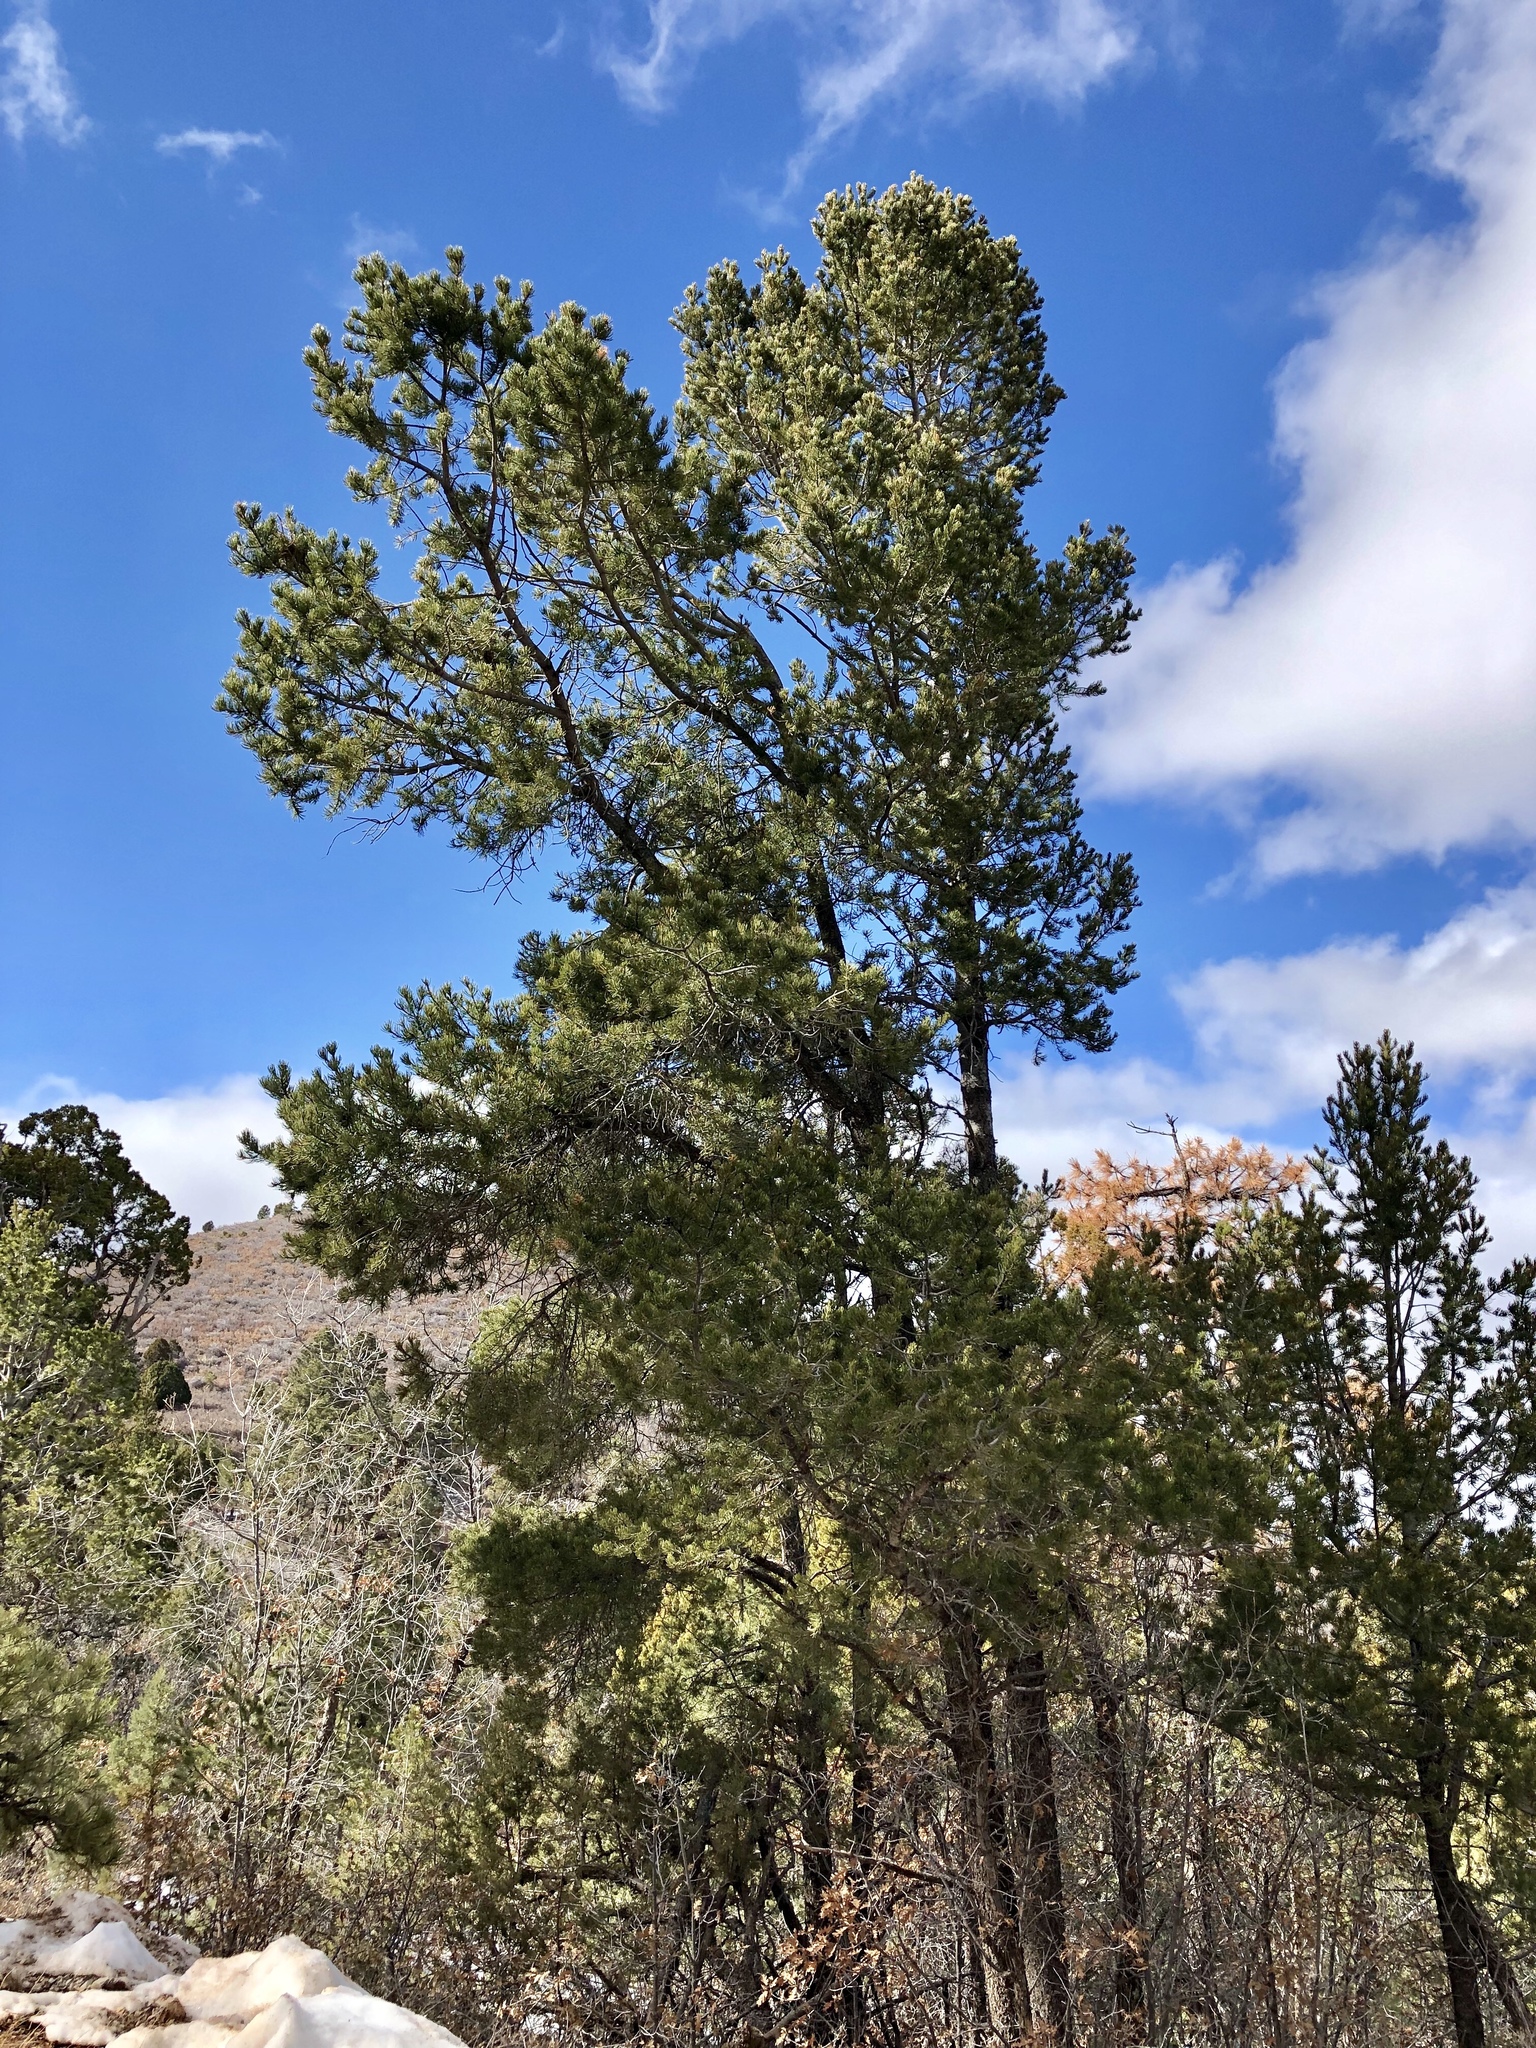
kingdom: Plantae
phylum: Tracheophyta
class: Pinopsida
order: Pinales
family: Pinaceae
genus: Pinus
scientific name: Pinus ponderosa
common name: Western yellow-pine
